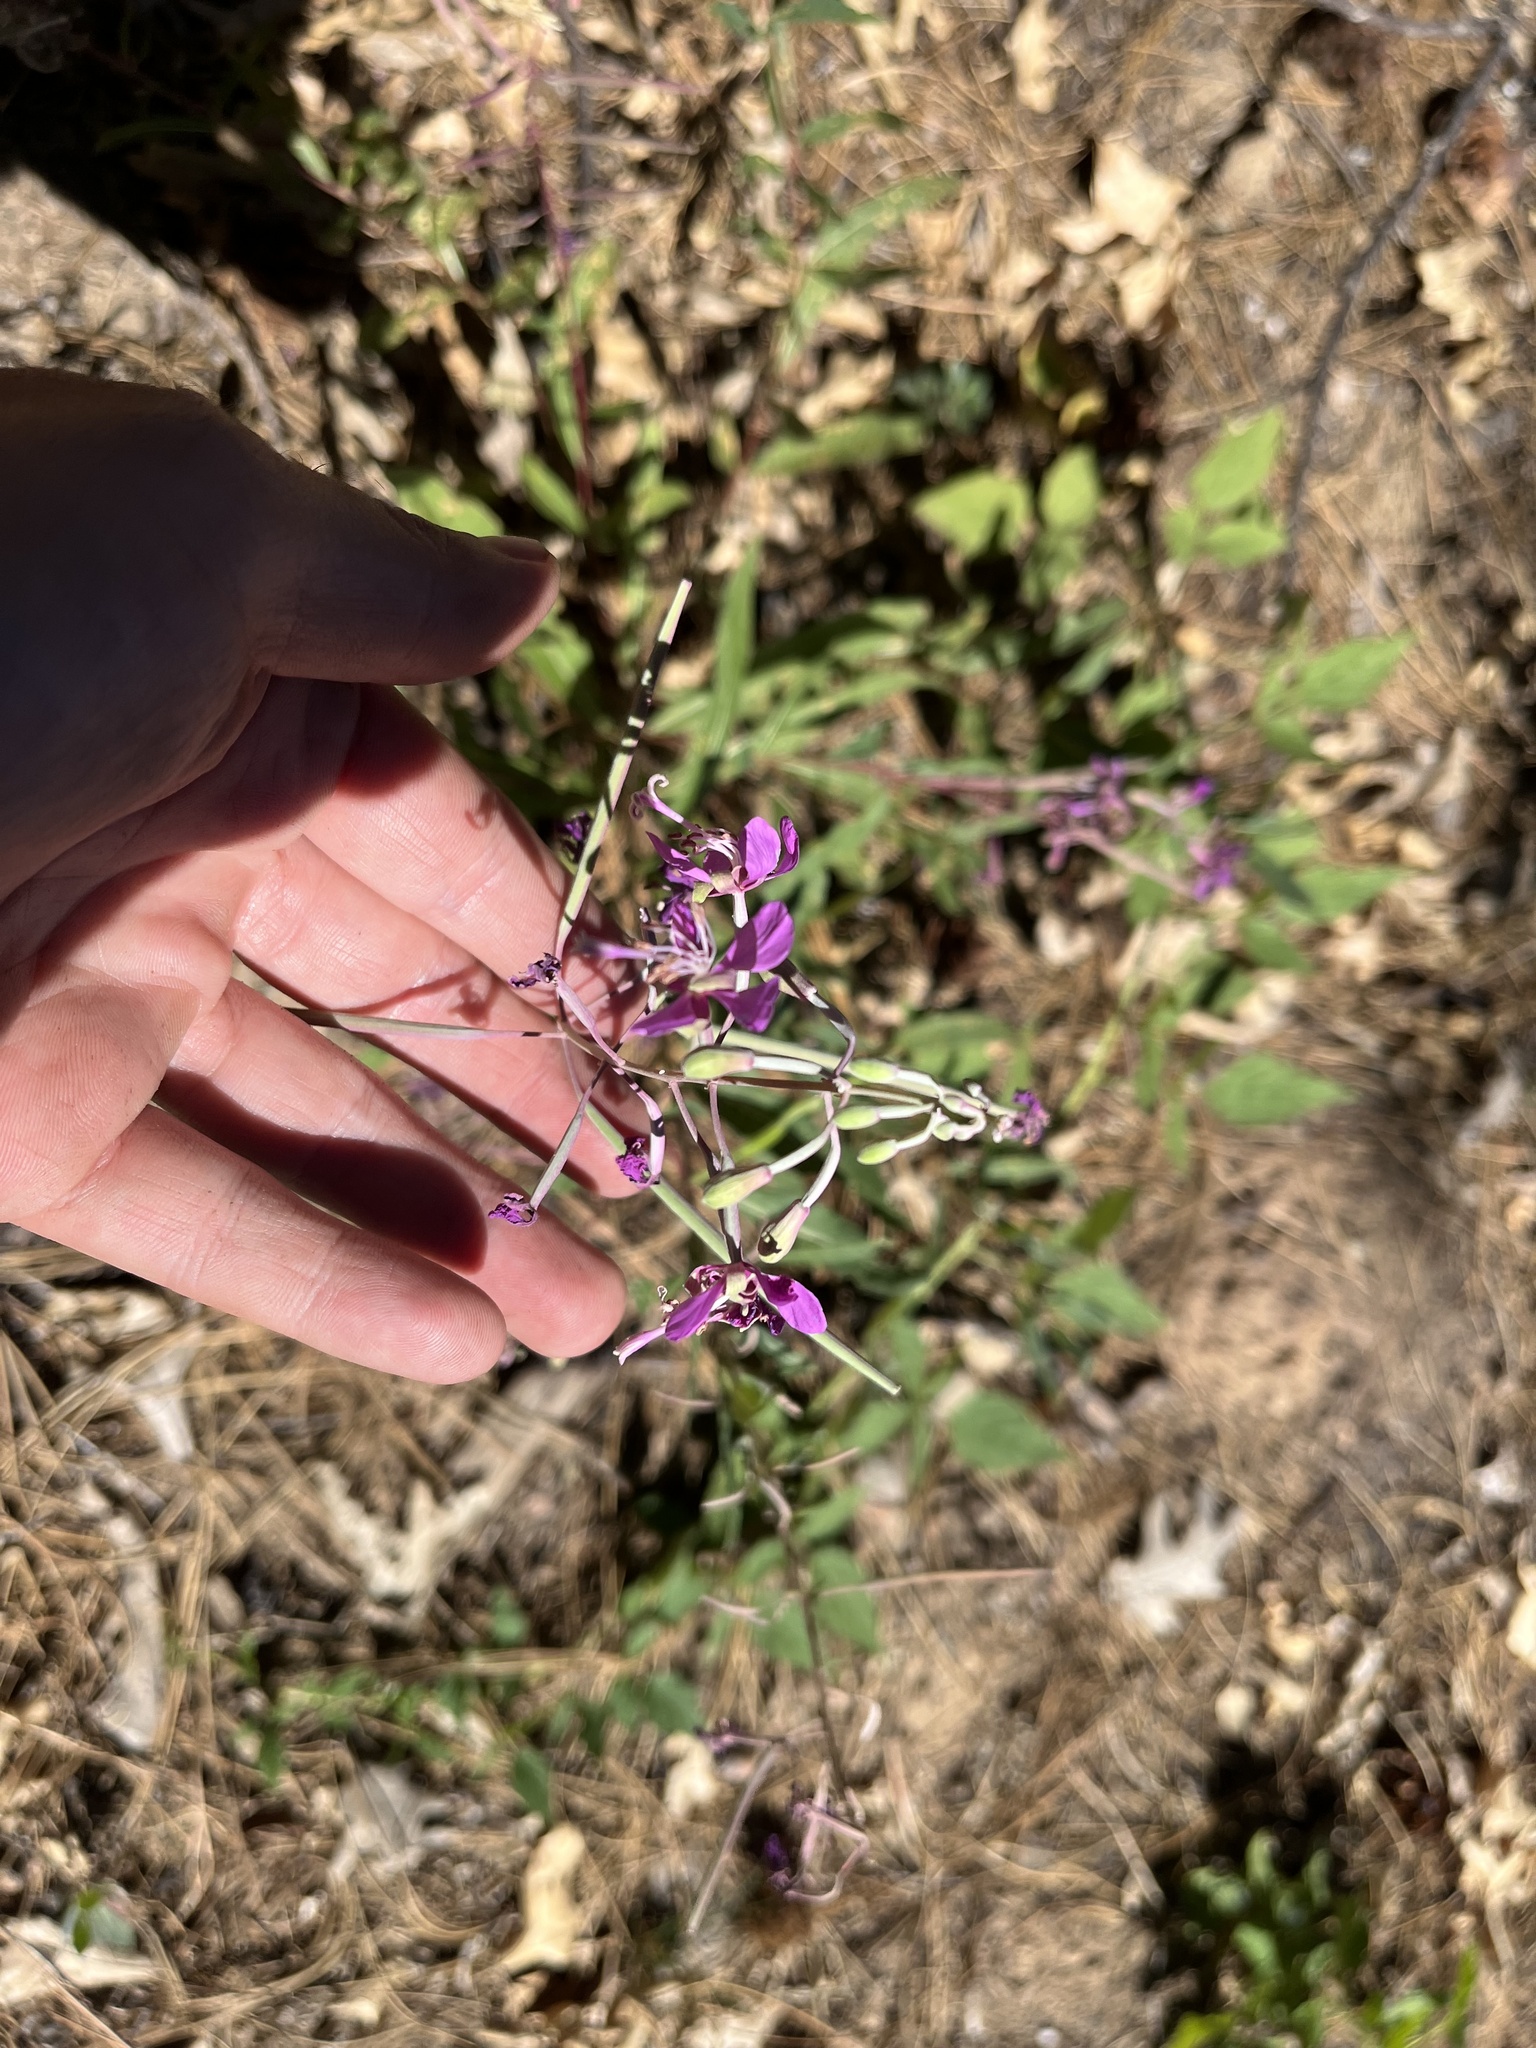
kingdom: Plantae
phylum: Tracheophyta
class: Magnoliopsida
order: Myrtales
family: Onagraceae
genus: Chamaenerion
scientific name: Chamaenerion angustifolium
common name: Fireweed
